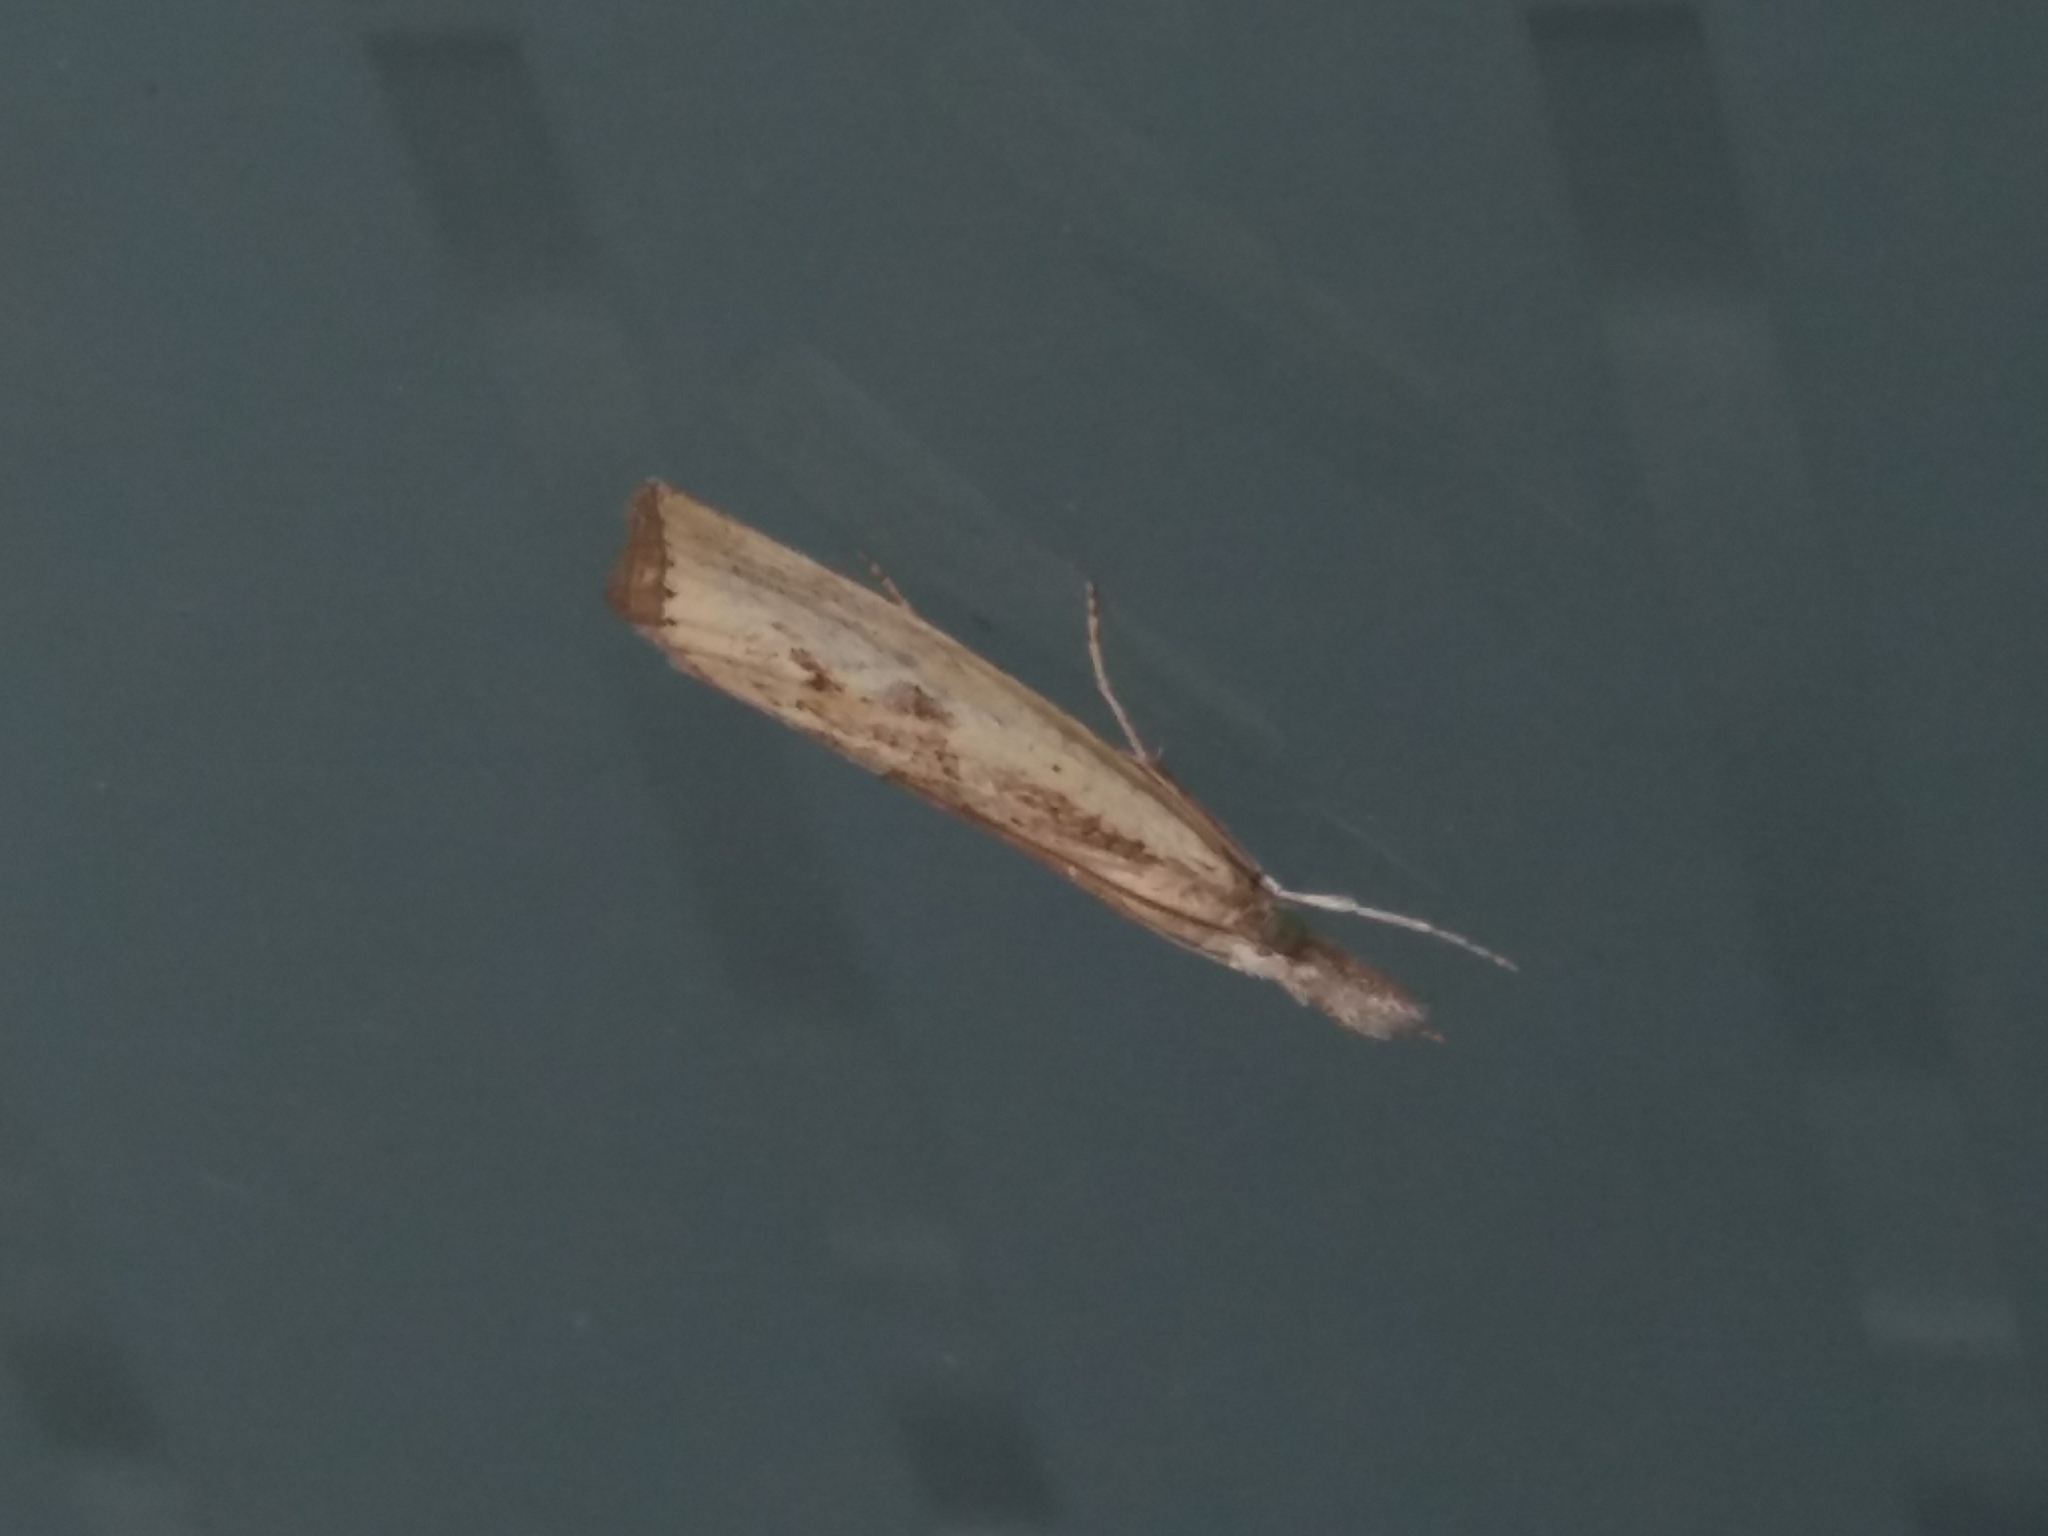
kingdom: Animalia
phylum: Arthropoda
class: Insecta
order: Lepidoptera
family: Crambidae
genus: Agriphila
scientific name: Agriphila inquinatella
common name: Barred grass-veneer
